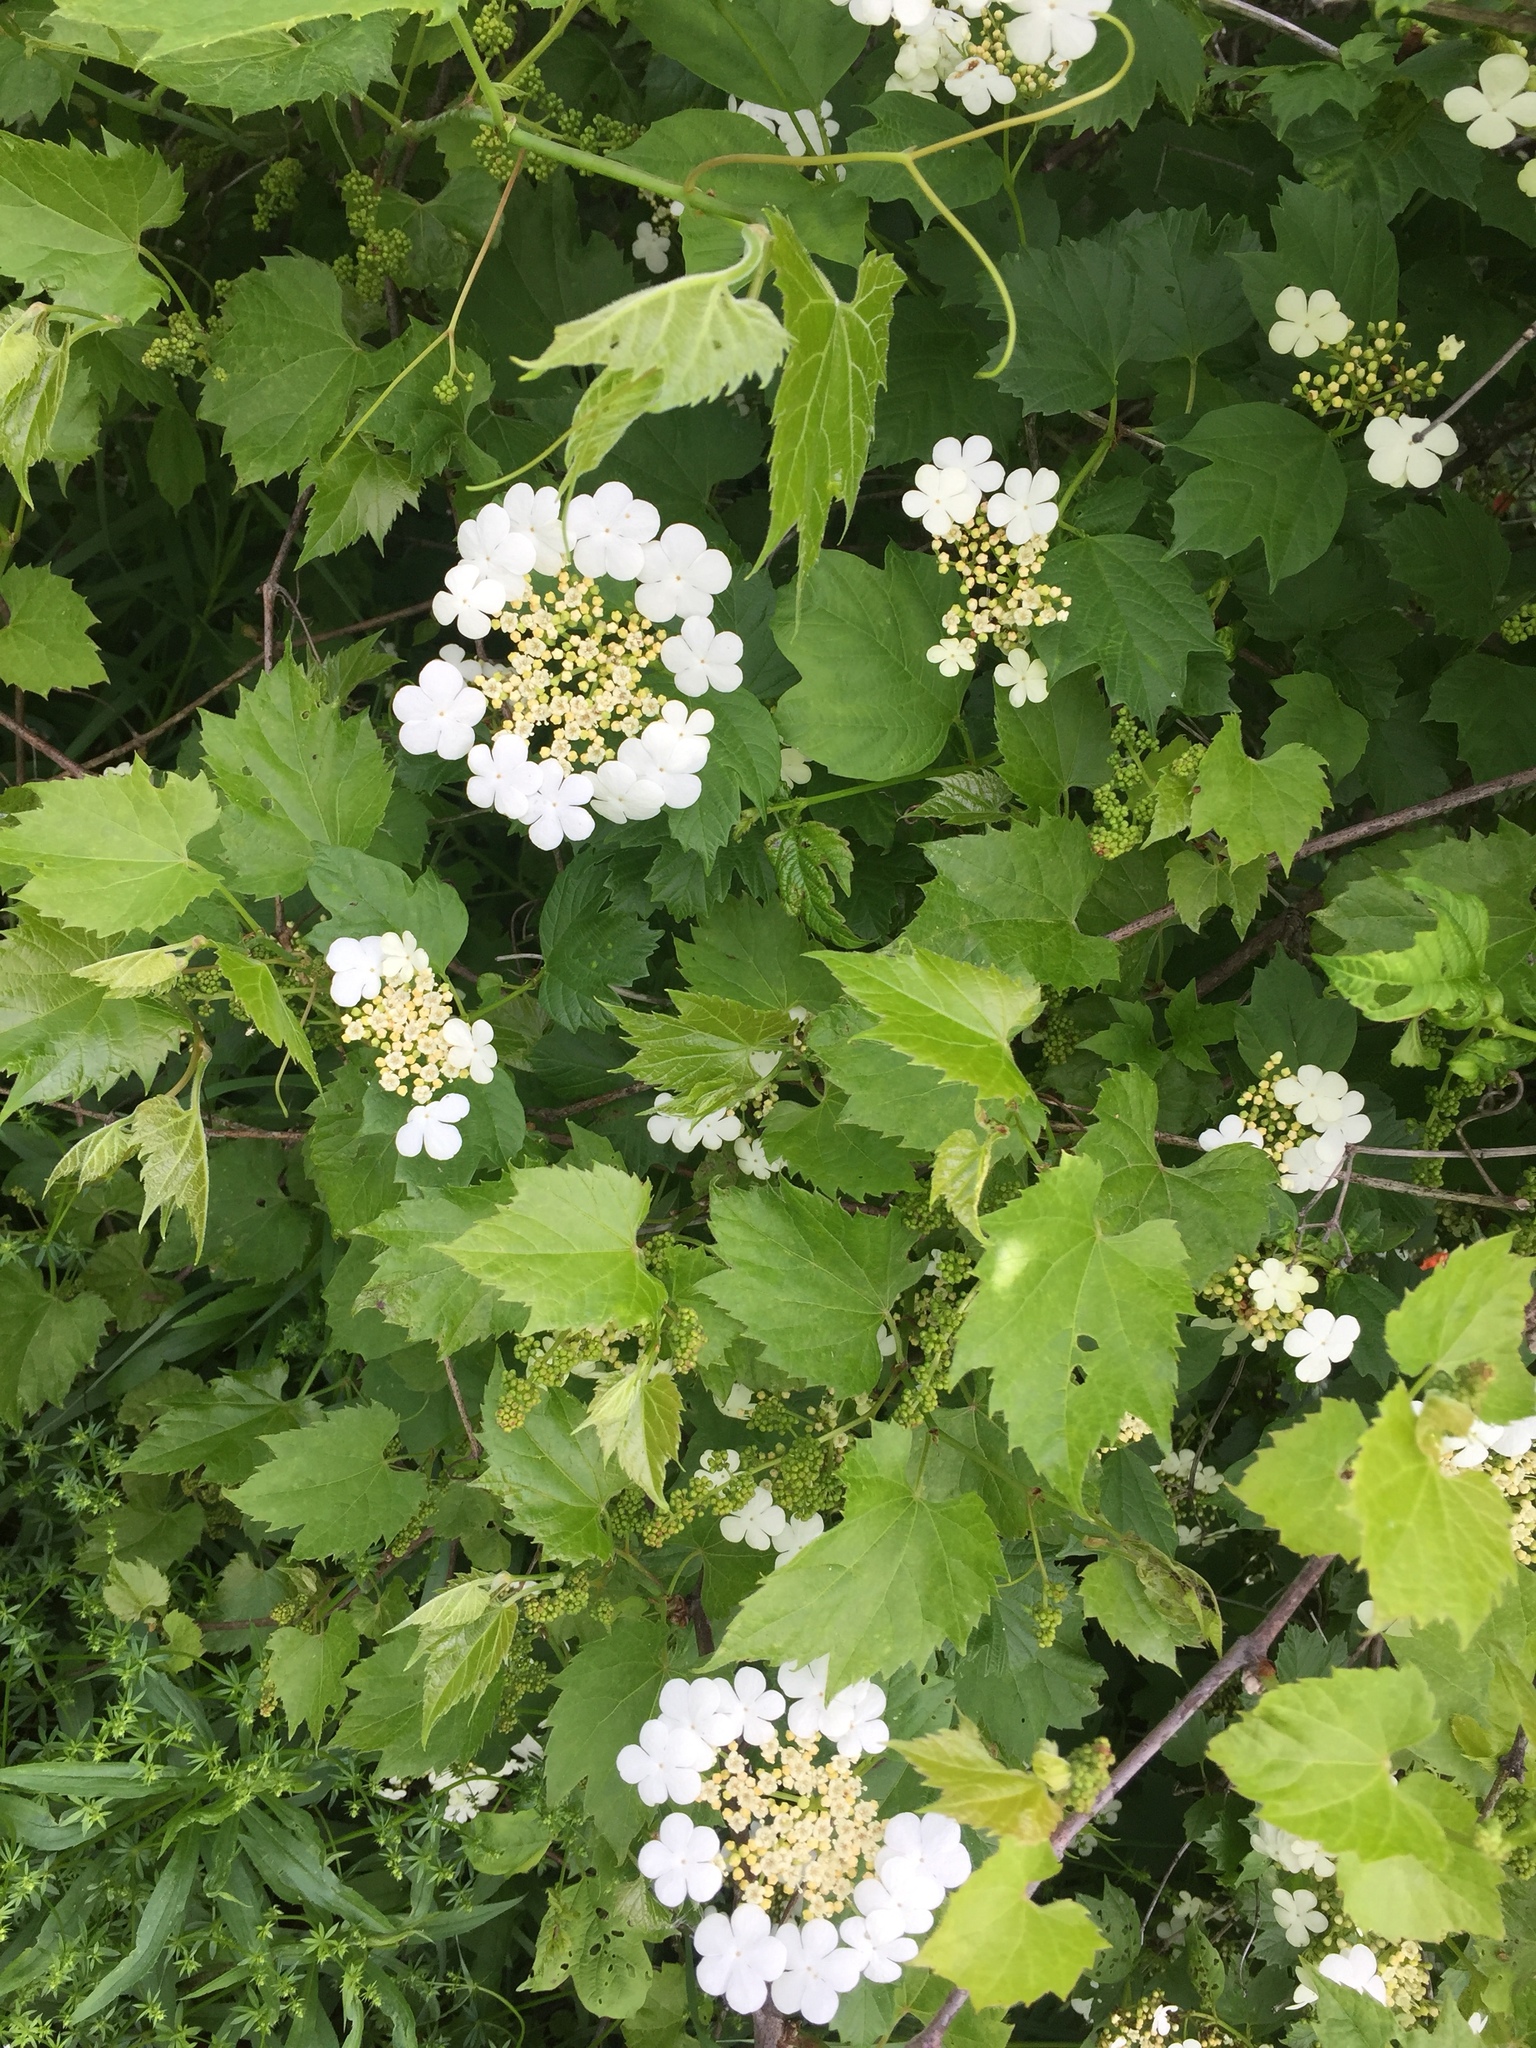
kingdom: Plantae
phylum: Tracheophyta
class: Magnoliopsida
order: Dipsacales
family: Viburnaceae
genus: Viburnum
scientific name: Viburnum opulus
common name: Guelder-rose
